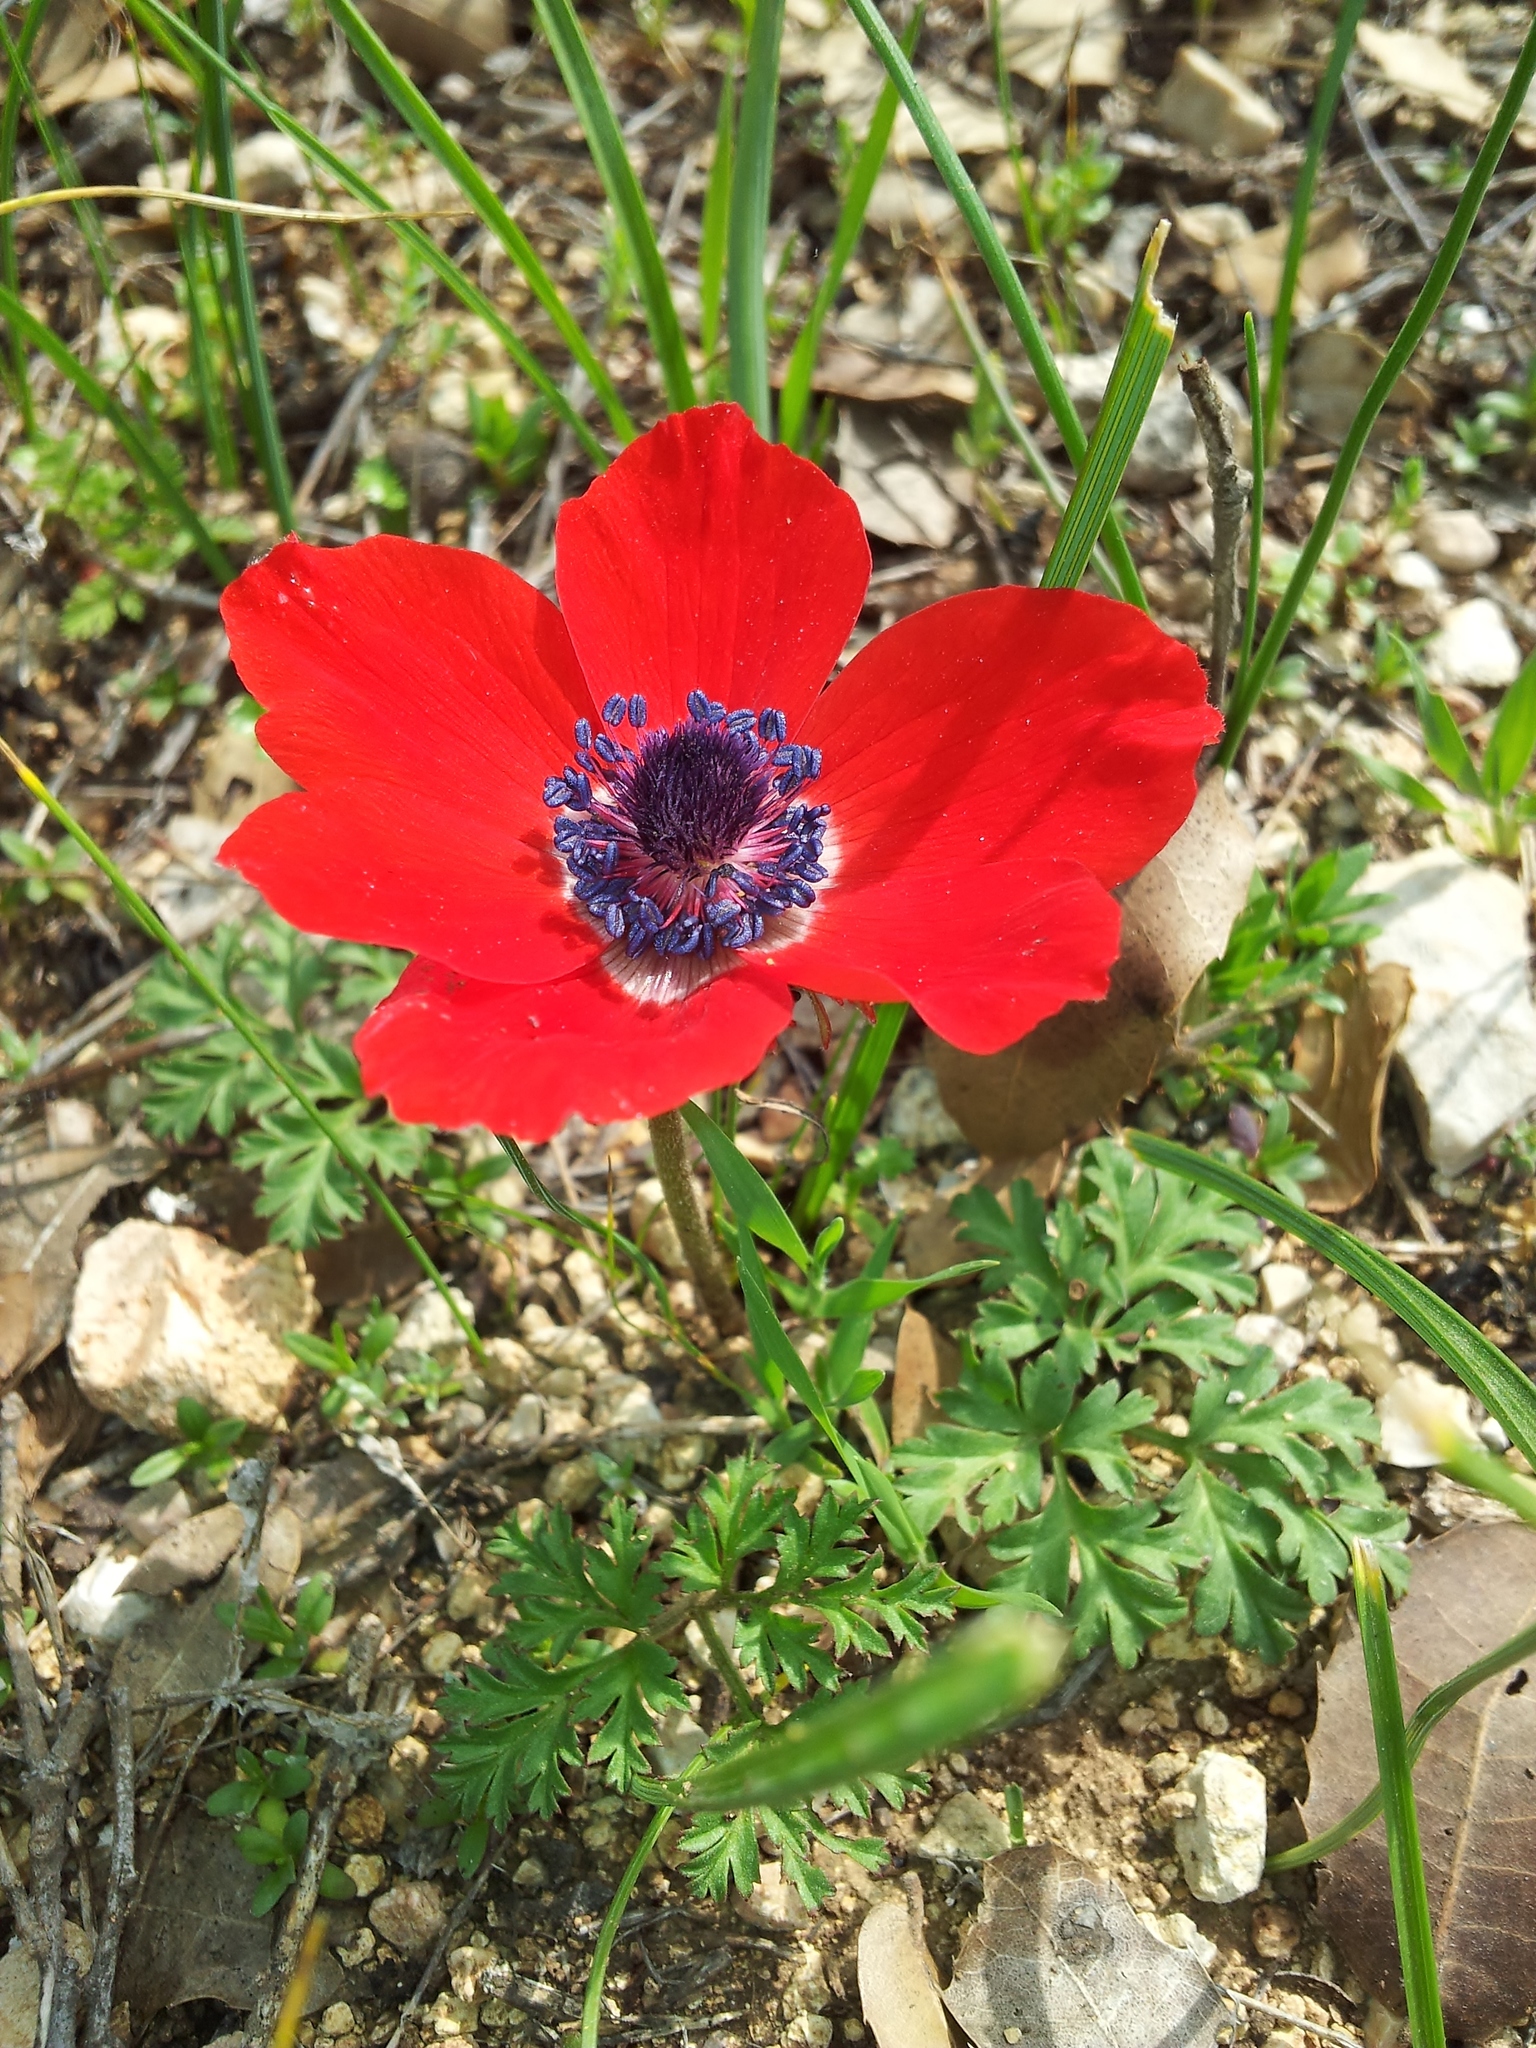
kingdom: Plantae
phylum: Tracheophyta
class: Magnoliopsida
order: Ranunculales
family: Ranunculaceae
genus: Anemone
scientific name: Anemone coronaria
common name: Poppy anemone
